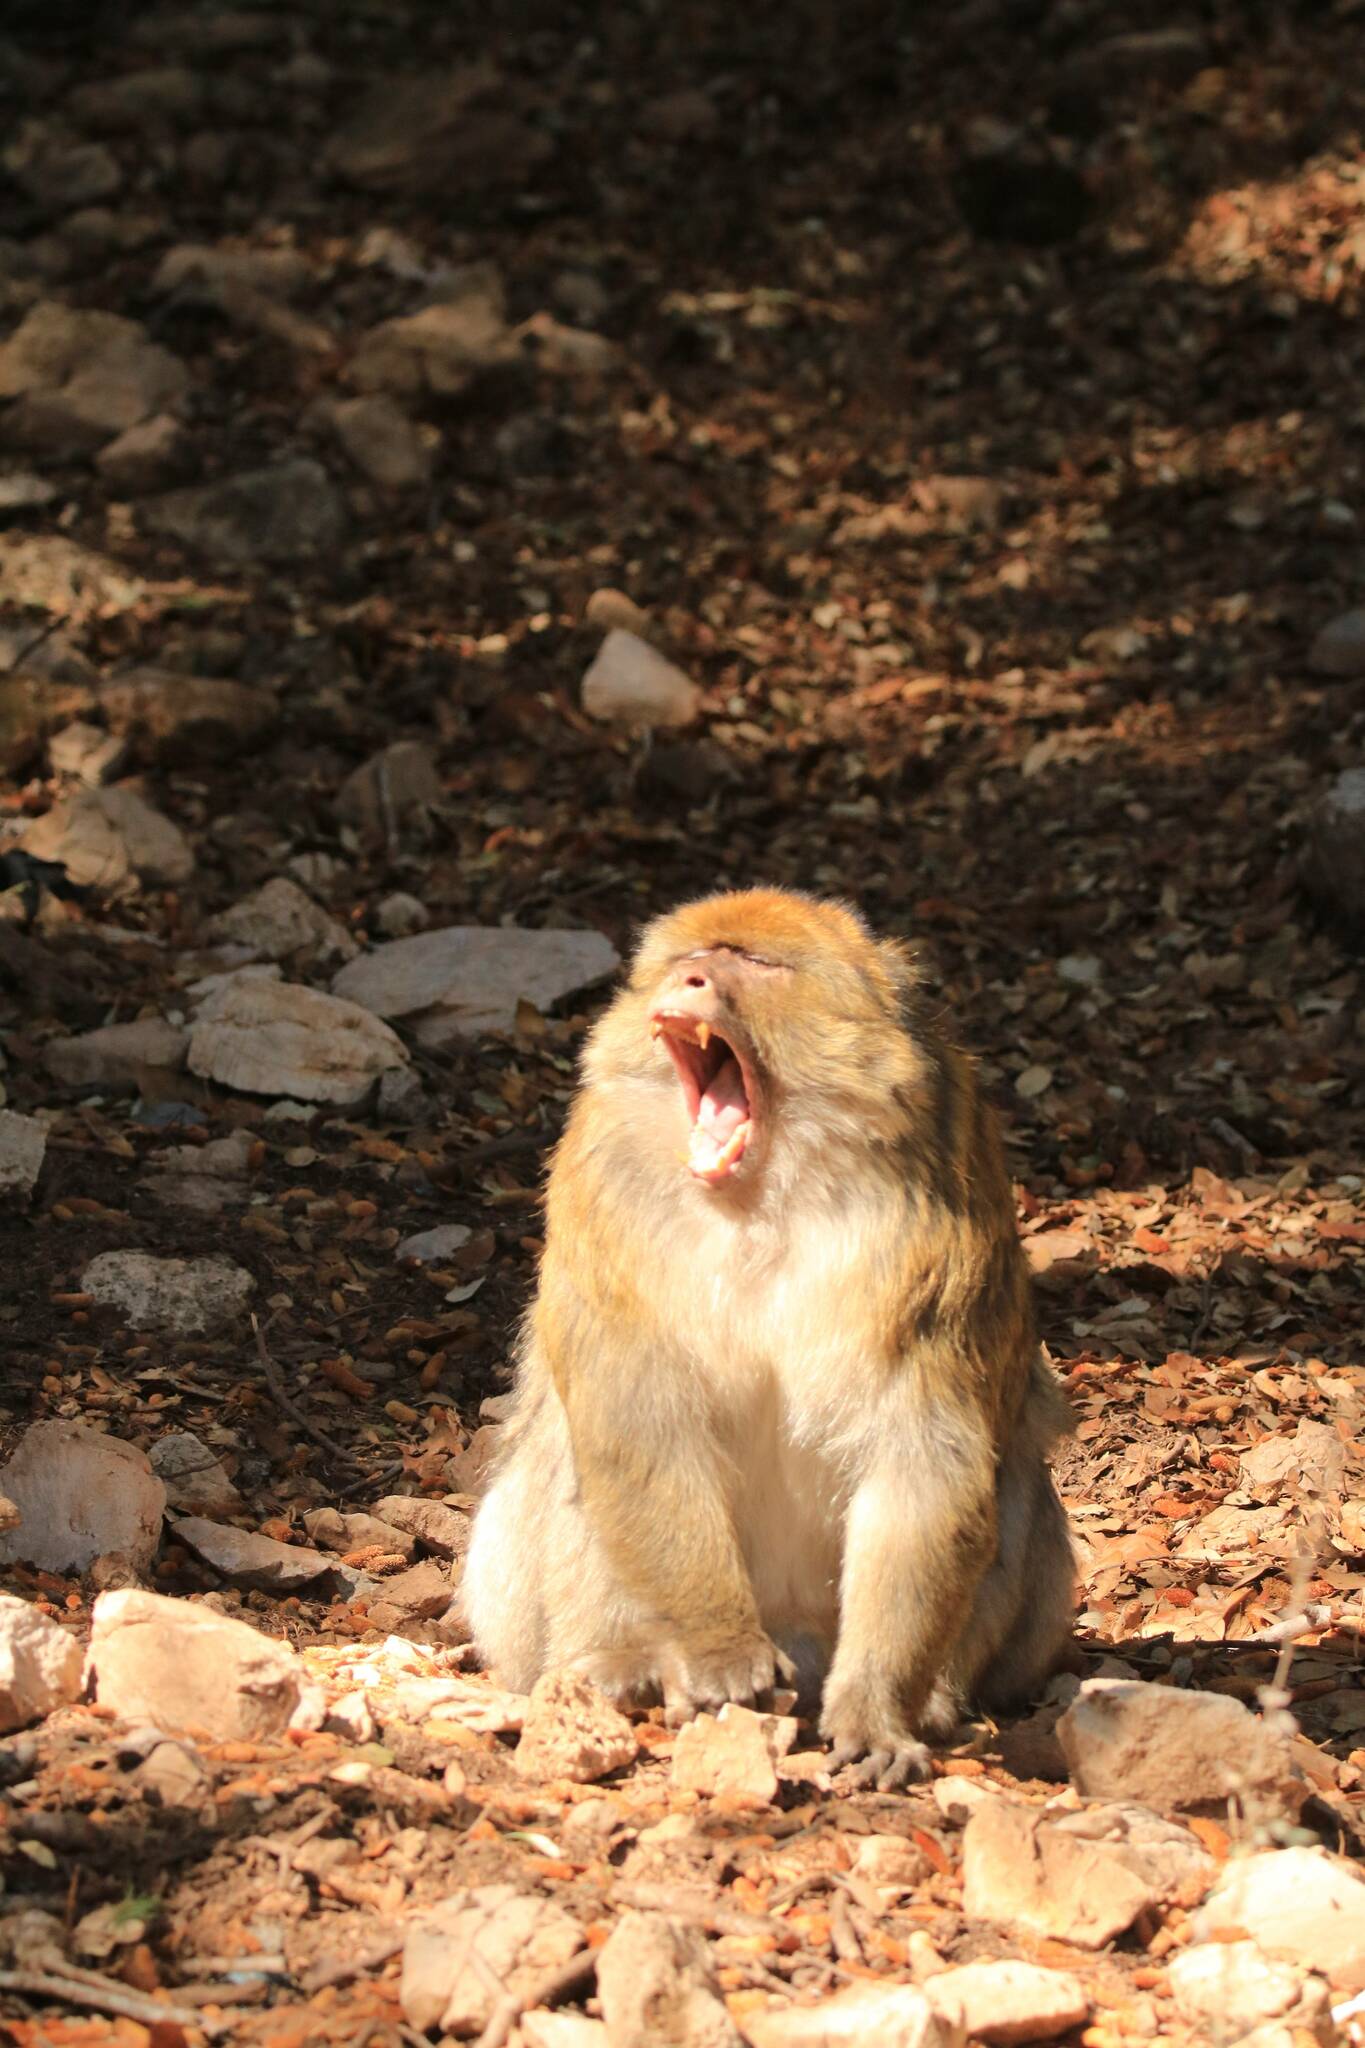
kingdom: Animalia
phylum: Chordata
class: Mammalia
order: Primates
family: Cercopithecidae
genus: Macaca
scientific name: Macaca sylvanus
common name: Barbary macaque
